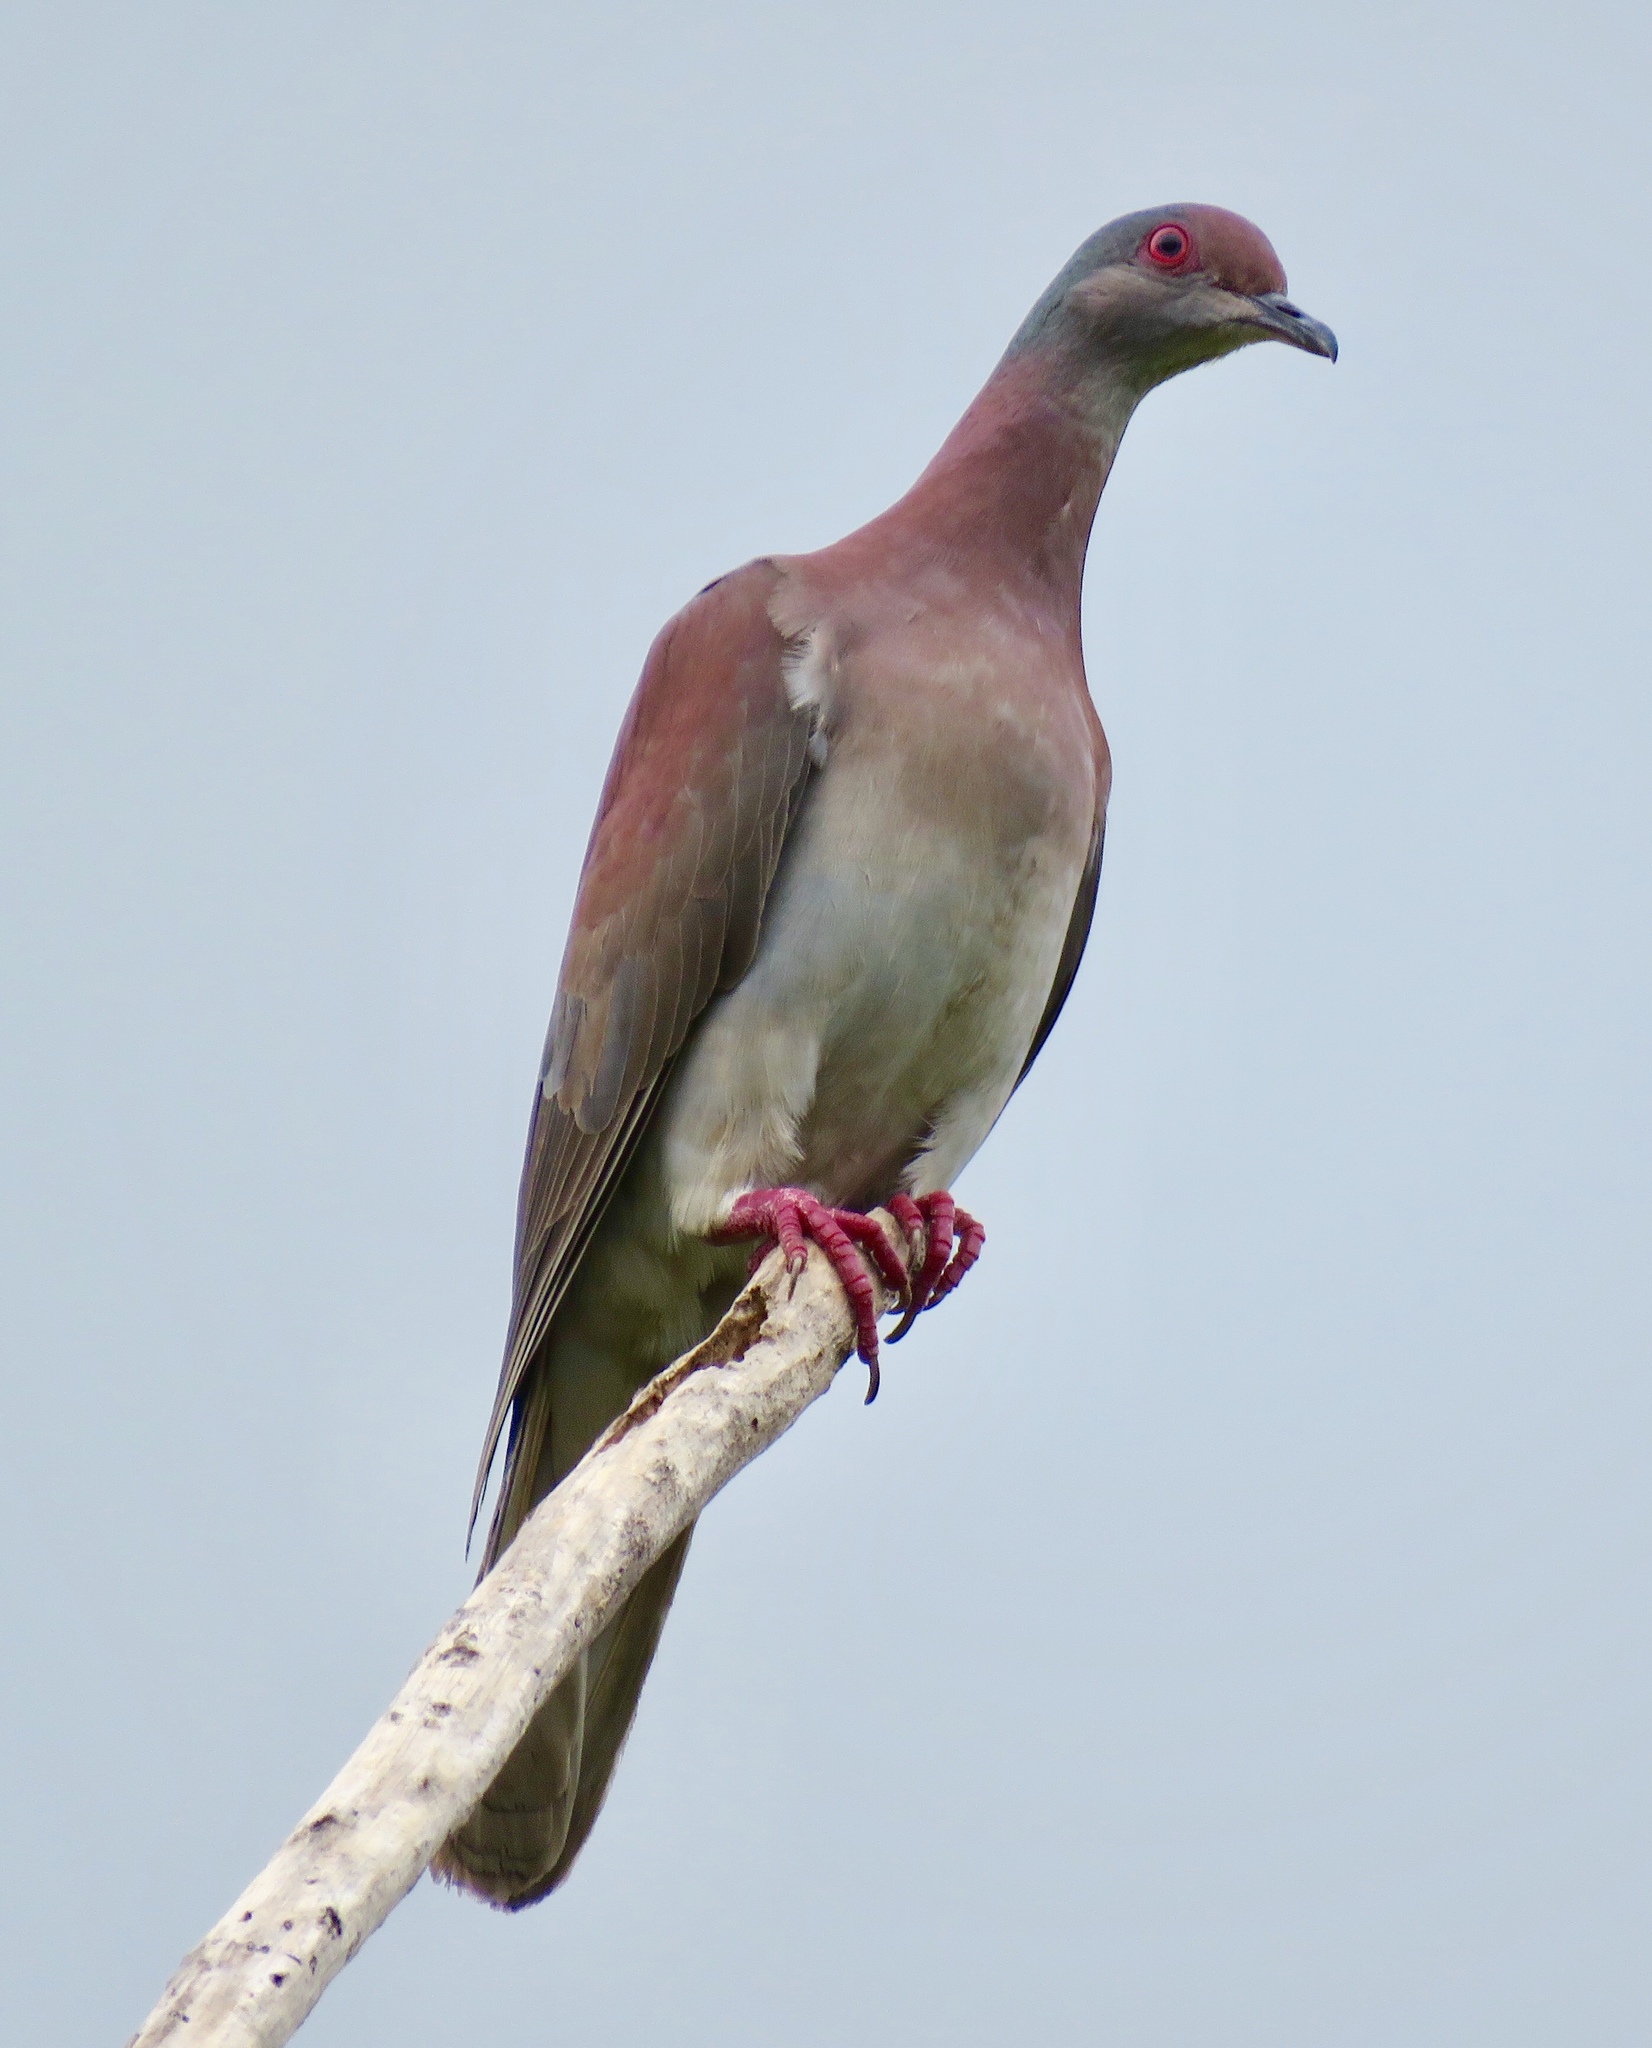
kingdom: Animalia
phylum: Chordata
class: Aves
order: Columbiformes
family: Columbidae
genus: Patagioenas
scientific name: Patagioenas cayennensis
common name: Pale-vented pigeon
